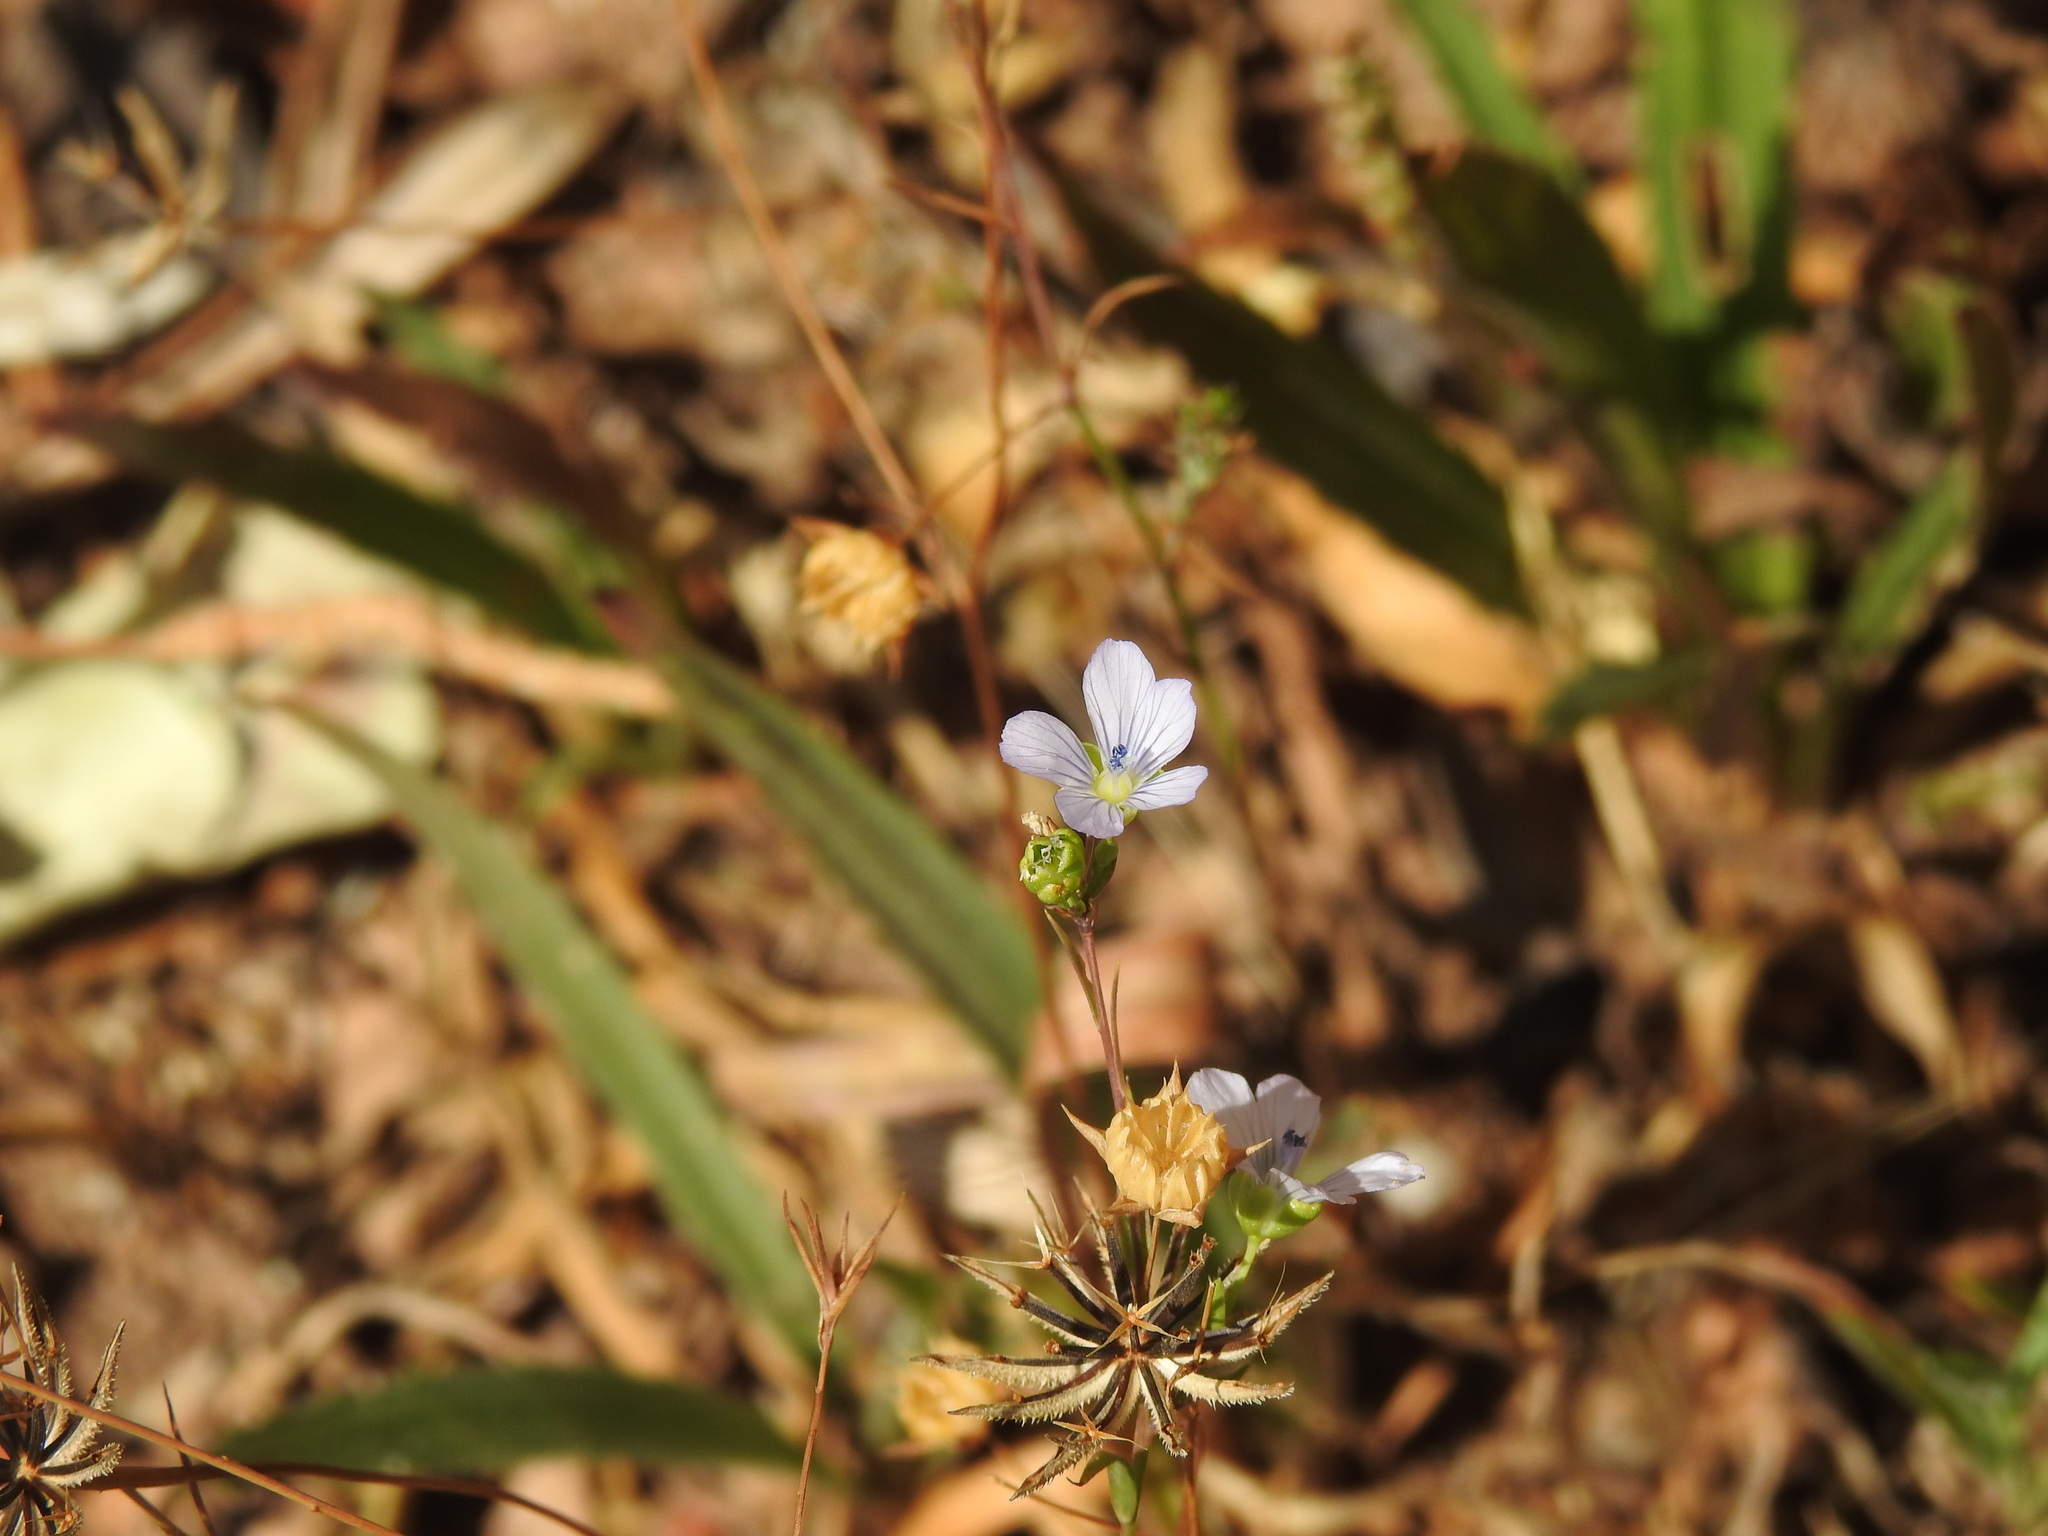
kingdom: Plantae
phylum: Tracheophyta
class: Magnoliopsida
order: Malpighiales
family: Linaceae
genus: Linum
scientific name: Linum bienne
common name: Pale flax
